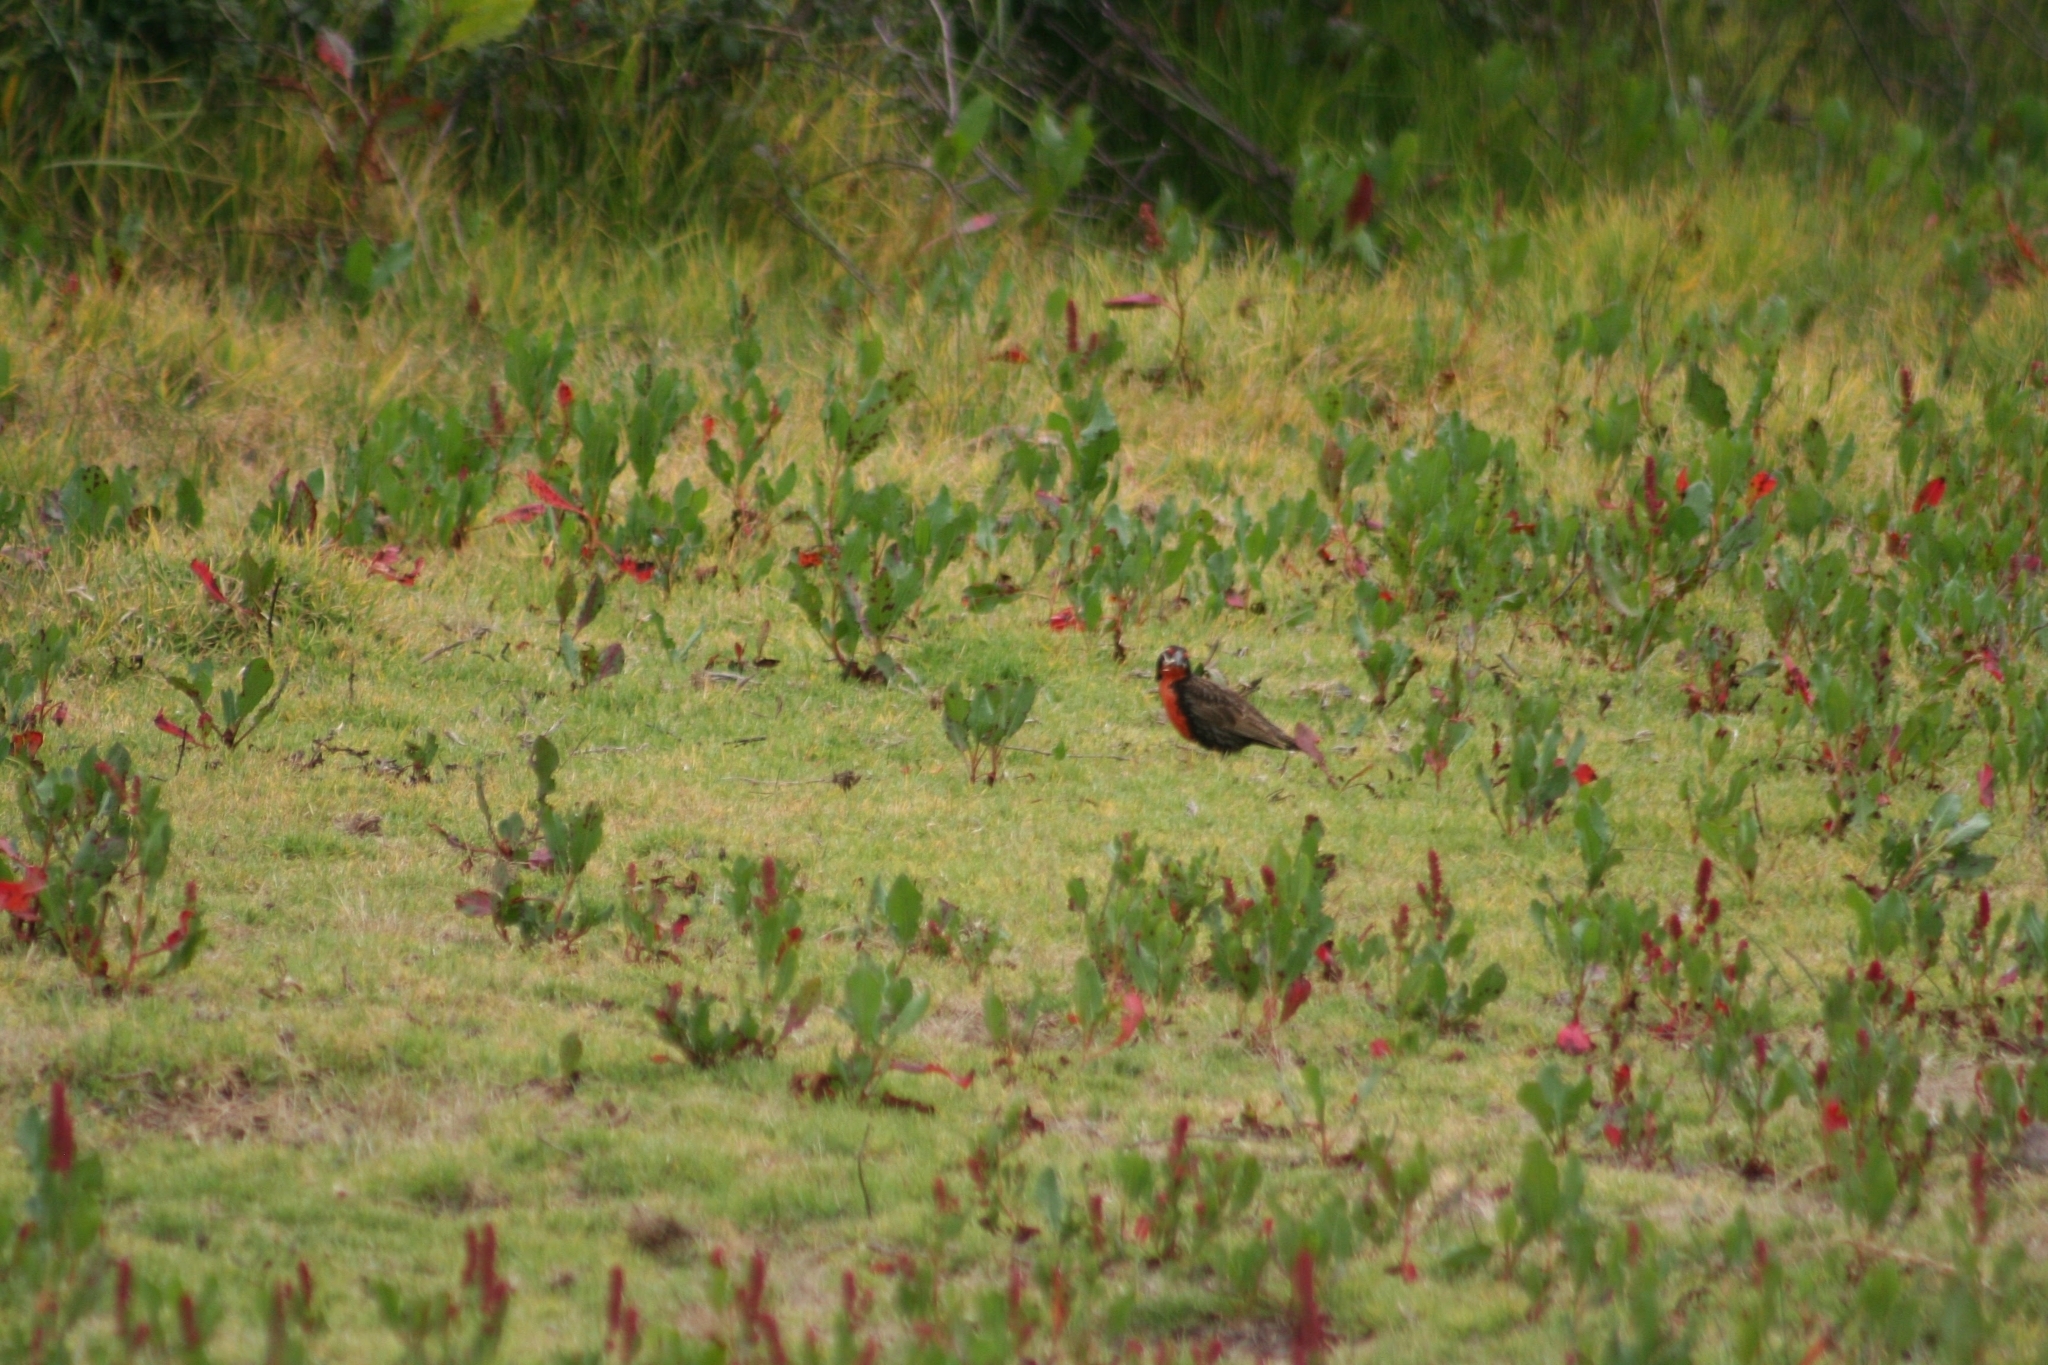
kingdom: Animalia
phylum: Chordata
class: Aves
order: Passeriformes
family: Icteridae
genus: Sturnella
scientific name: Sturnella loyca
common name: Long-tailed meadowlark
